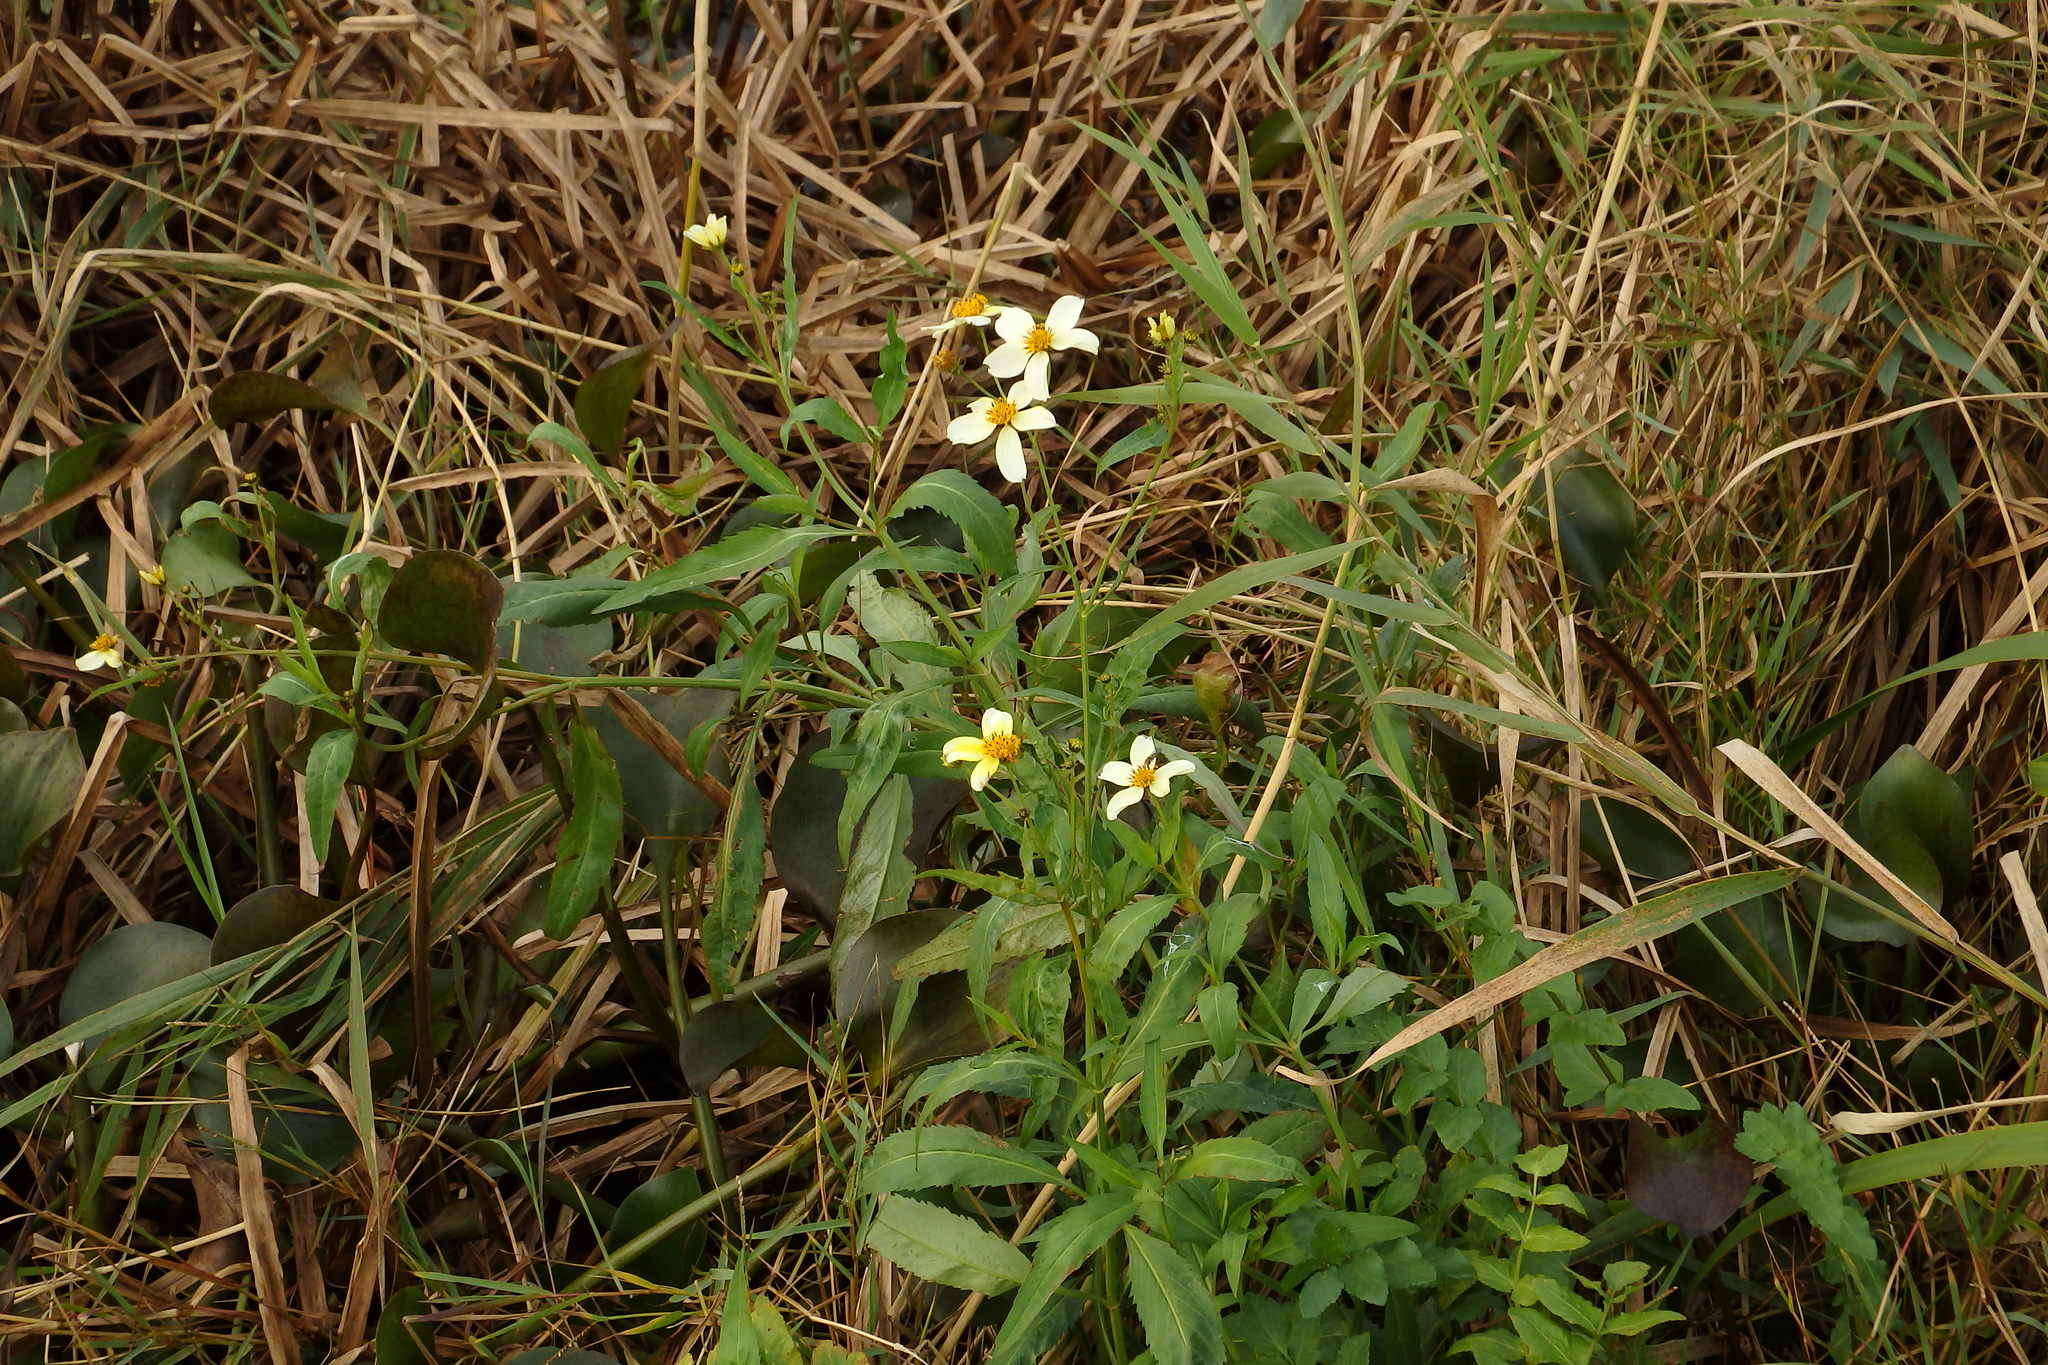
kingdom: Plantae
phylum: Tracheophyta
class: Magnoliopsida
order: Asterales
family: Asteraceae
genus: Bidens
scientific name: Bidens aurea
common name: Arizona beggar-ticks
